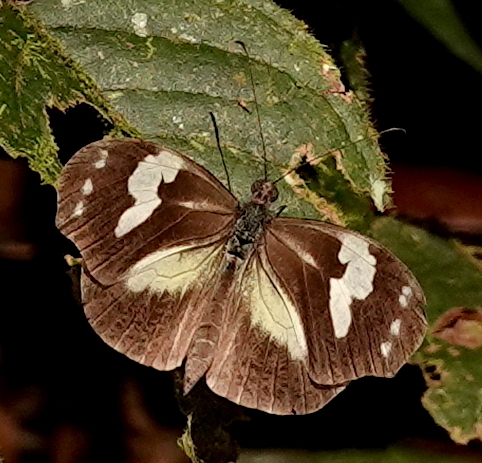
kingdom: Animalia
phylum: Arthropoda
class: Insecta
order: Lepidoptera
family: Pieridae
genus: Dismorphia
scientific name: Dismorphia crisia
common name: Crisia mimic-white
